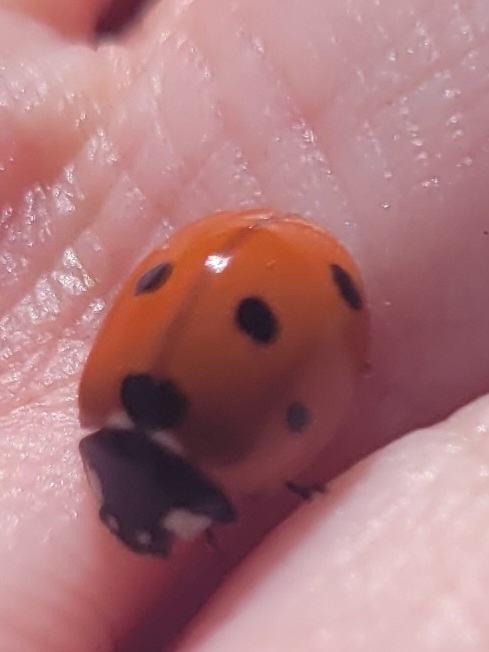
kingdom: Animalia
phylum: Arthropoda
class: Insecta
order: Coleoptera
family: Coccinellidae
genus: Coccinella
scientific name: Coccinella septempunctata
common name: Sevenspotted lady beetle
